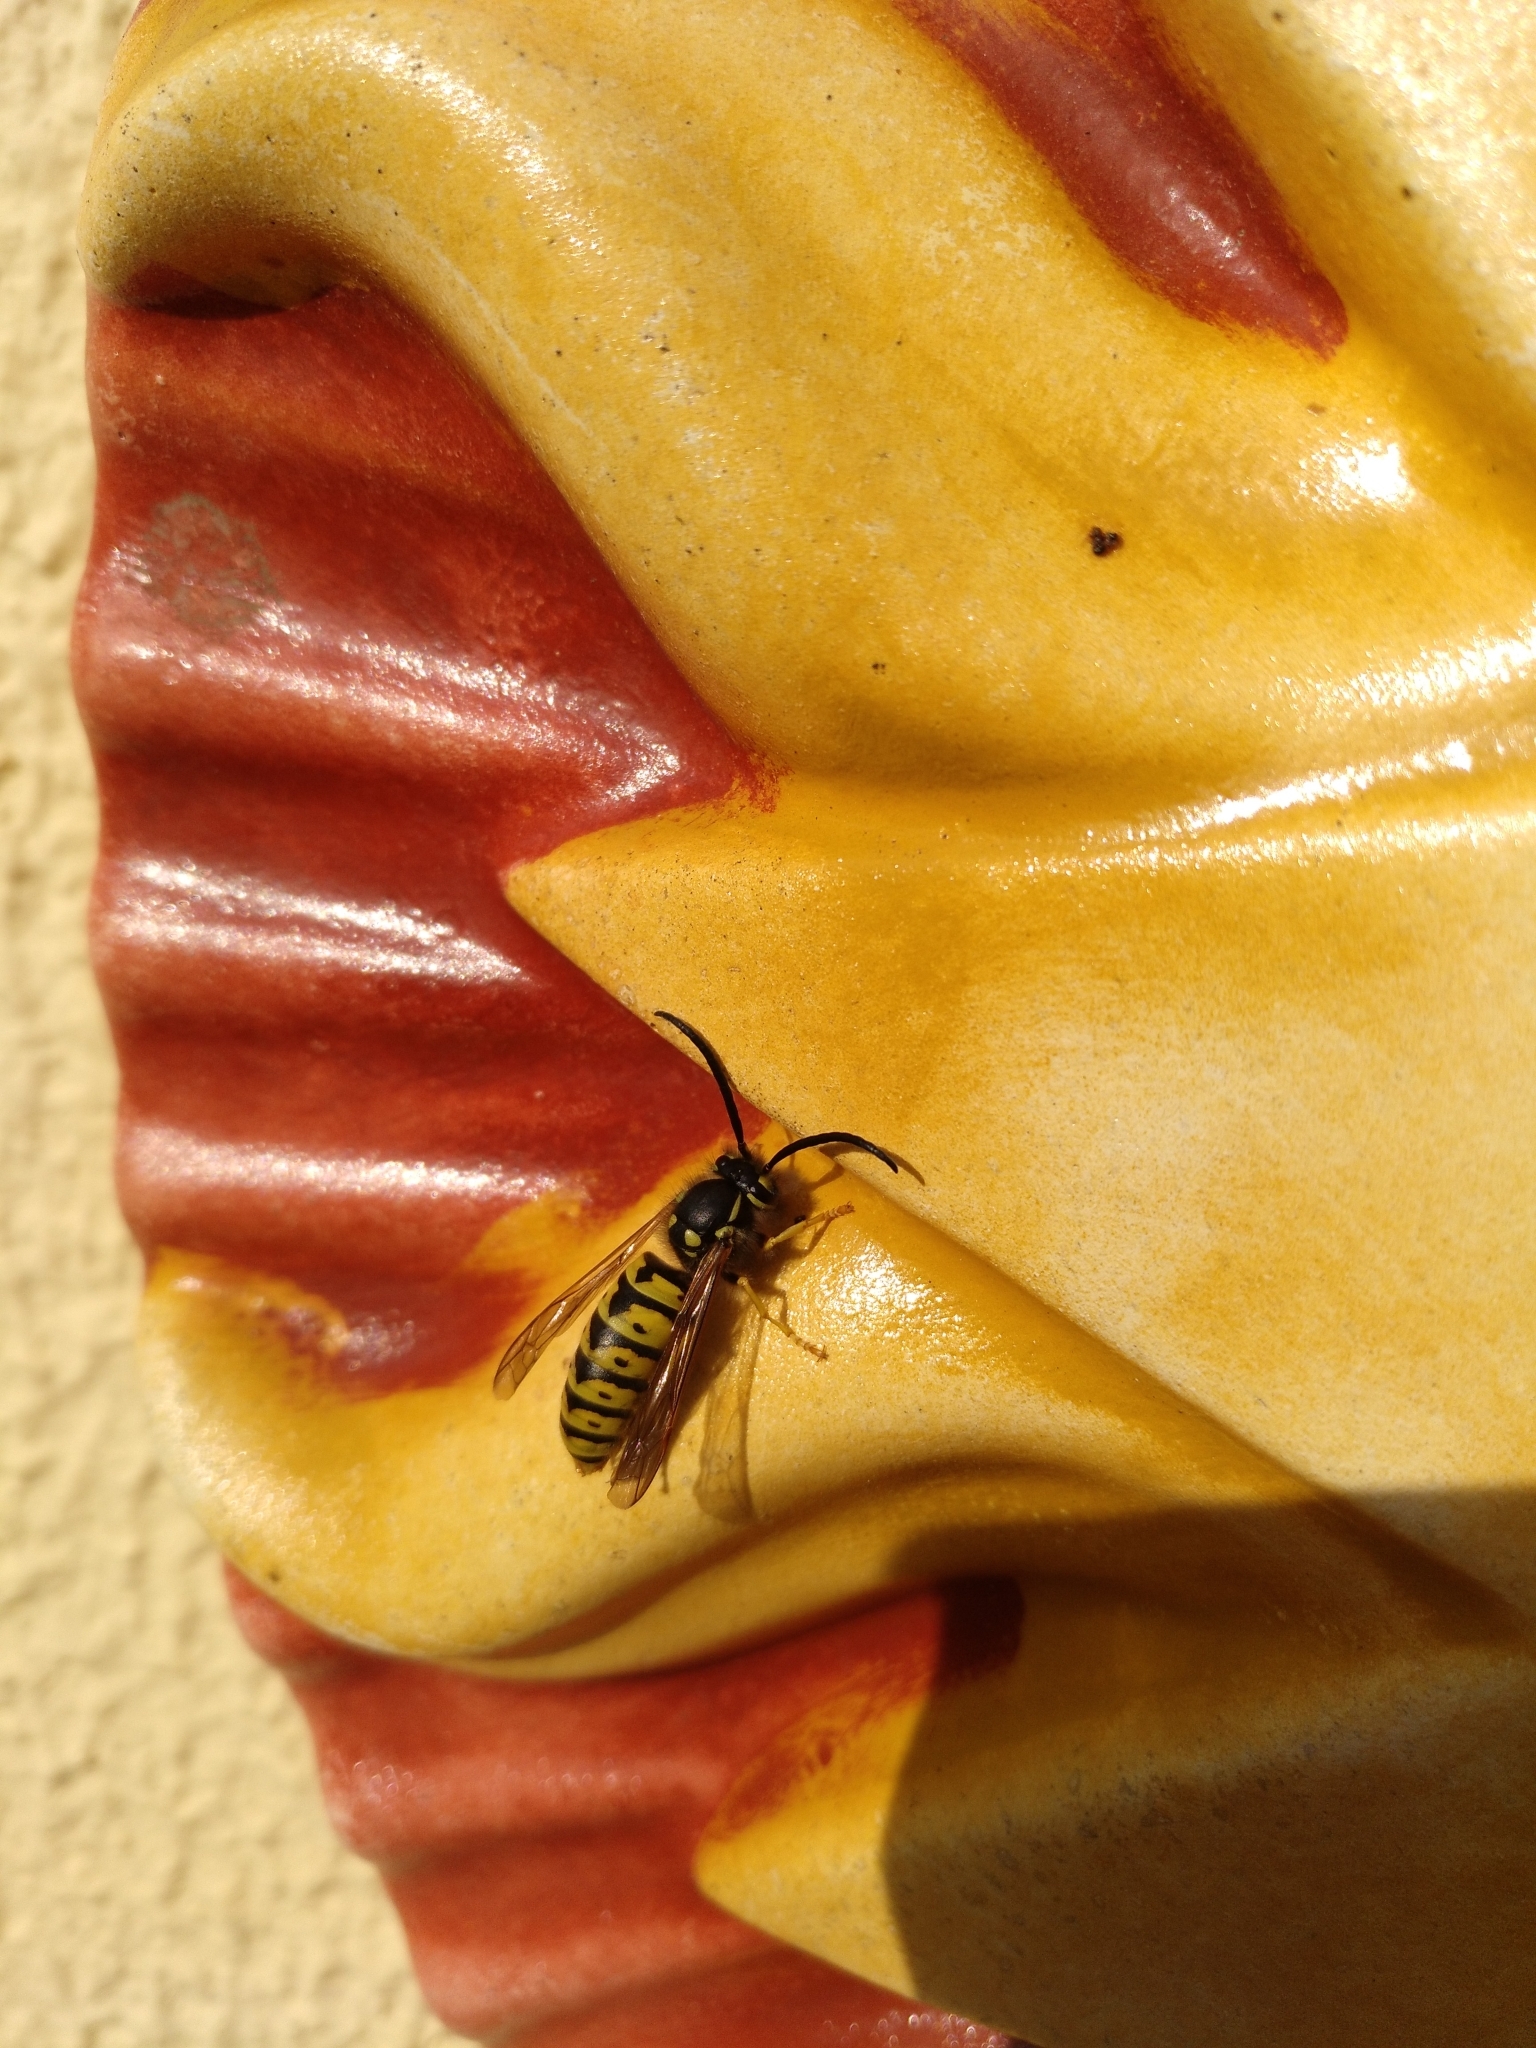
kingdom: Animalia
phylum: Arthropoda
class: Insecta
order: Hymenoptera
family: Vespidae
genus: Vespula
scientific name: Vespula germanica
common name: German wasp
